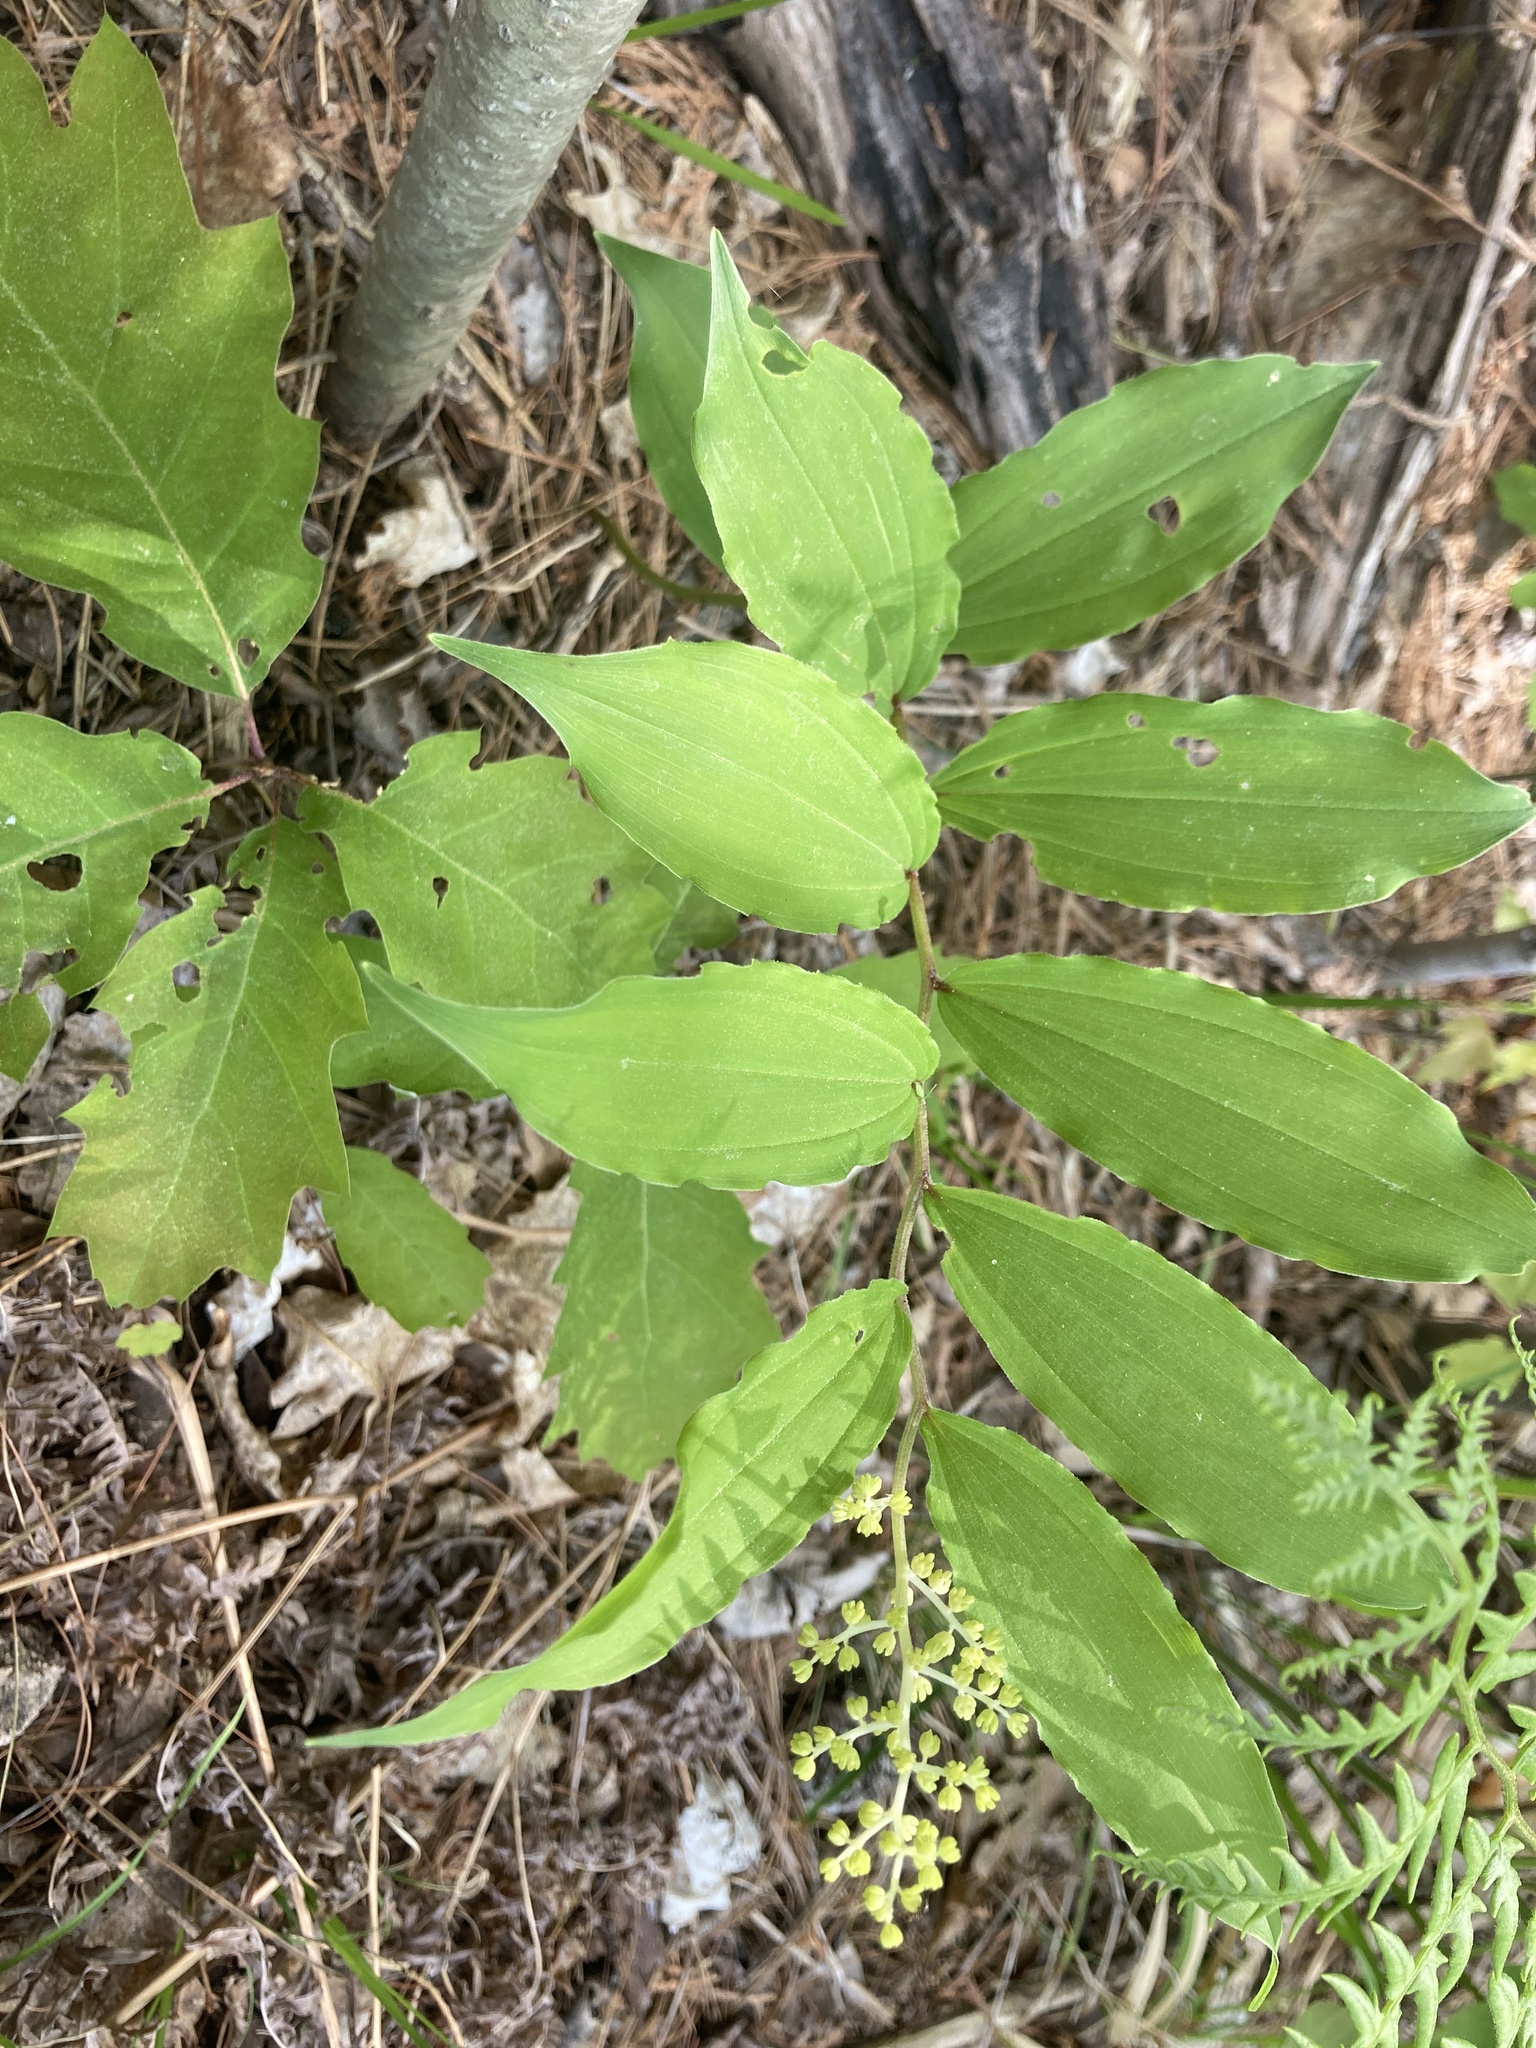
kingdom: Plantae
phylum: Tracheophyta
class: Liliopsida
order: Asparagales
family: Asparagaceae
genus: Maianthemum
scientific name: Maianthemum racemosum
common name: False spikenard
